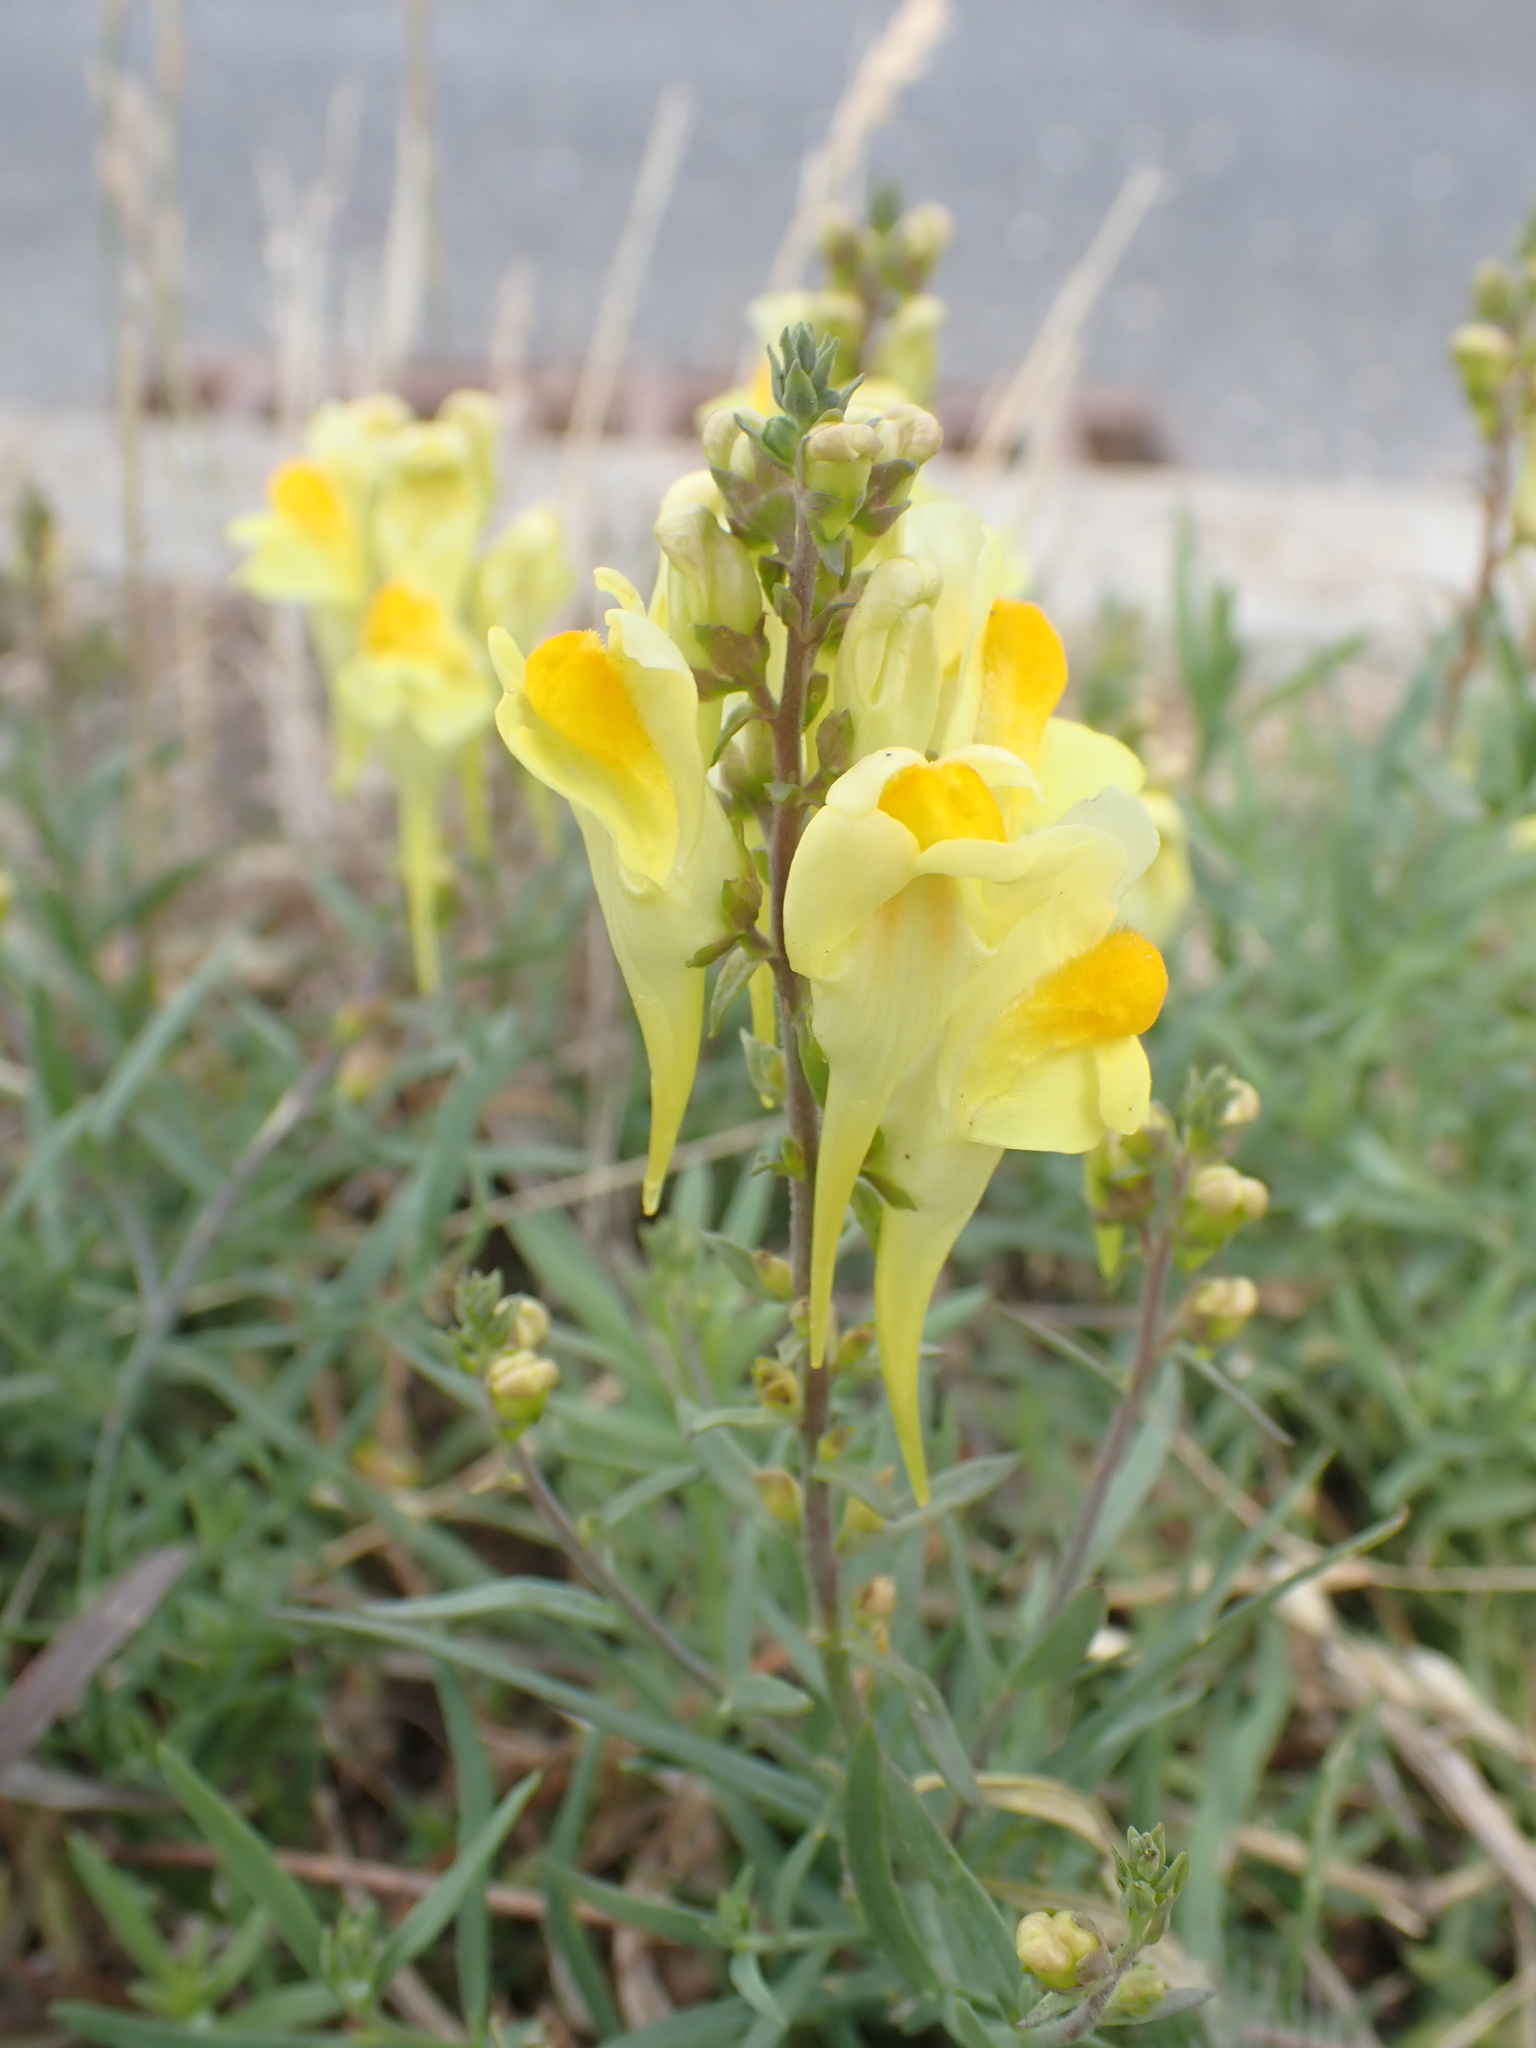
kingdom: Plantae
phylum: Tracheophyta
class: Magnoliopsida
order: Lamiales
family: Plantaginaceae
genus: Linaria
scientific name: Linaria vulgaris
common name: Butter and eggs
